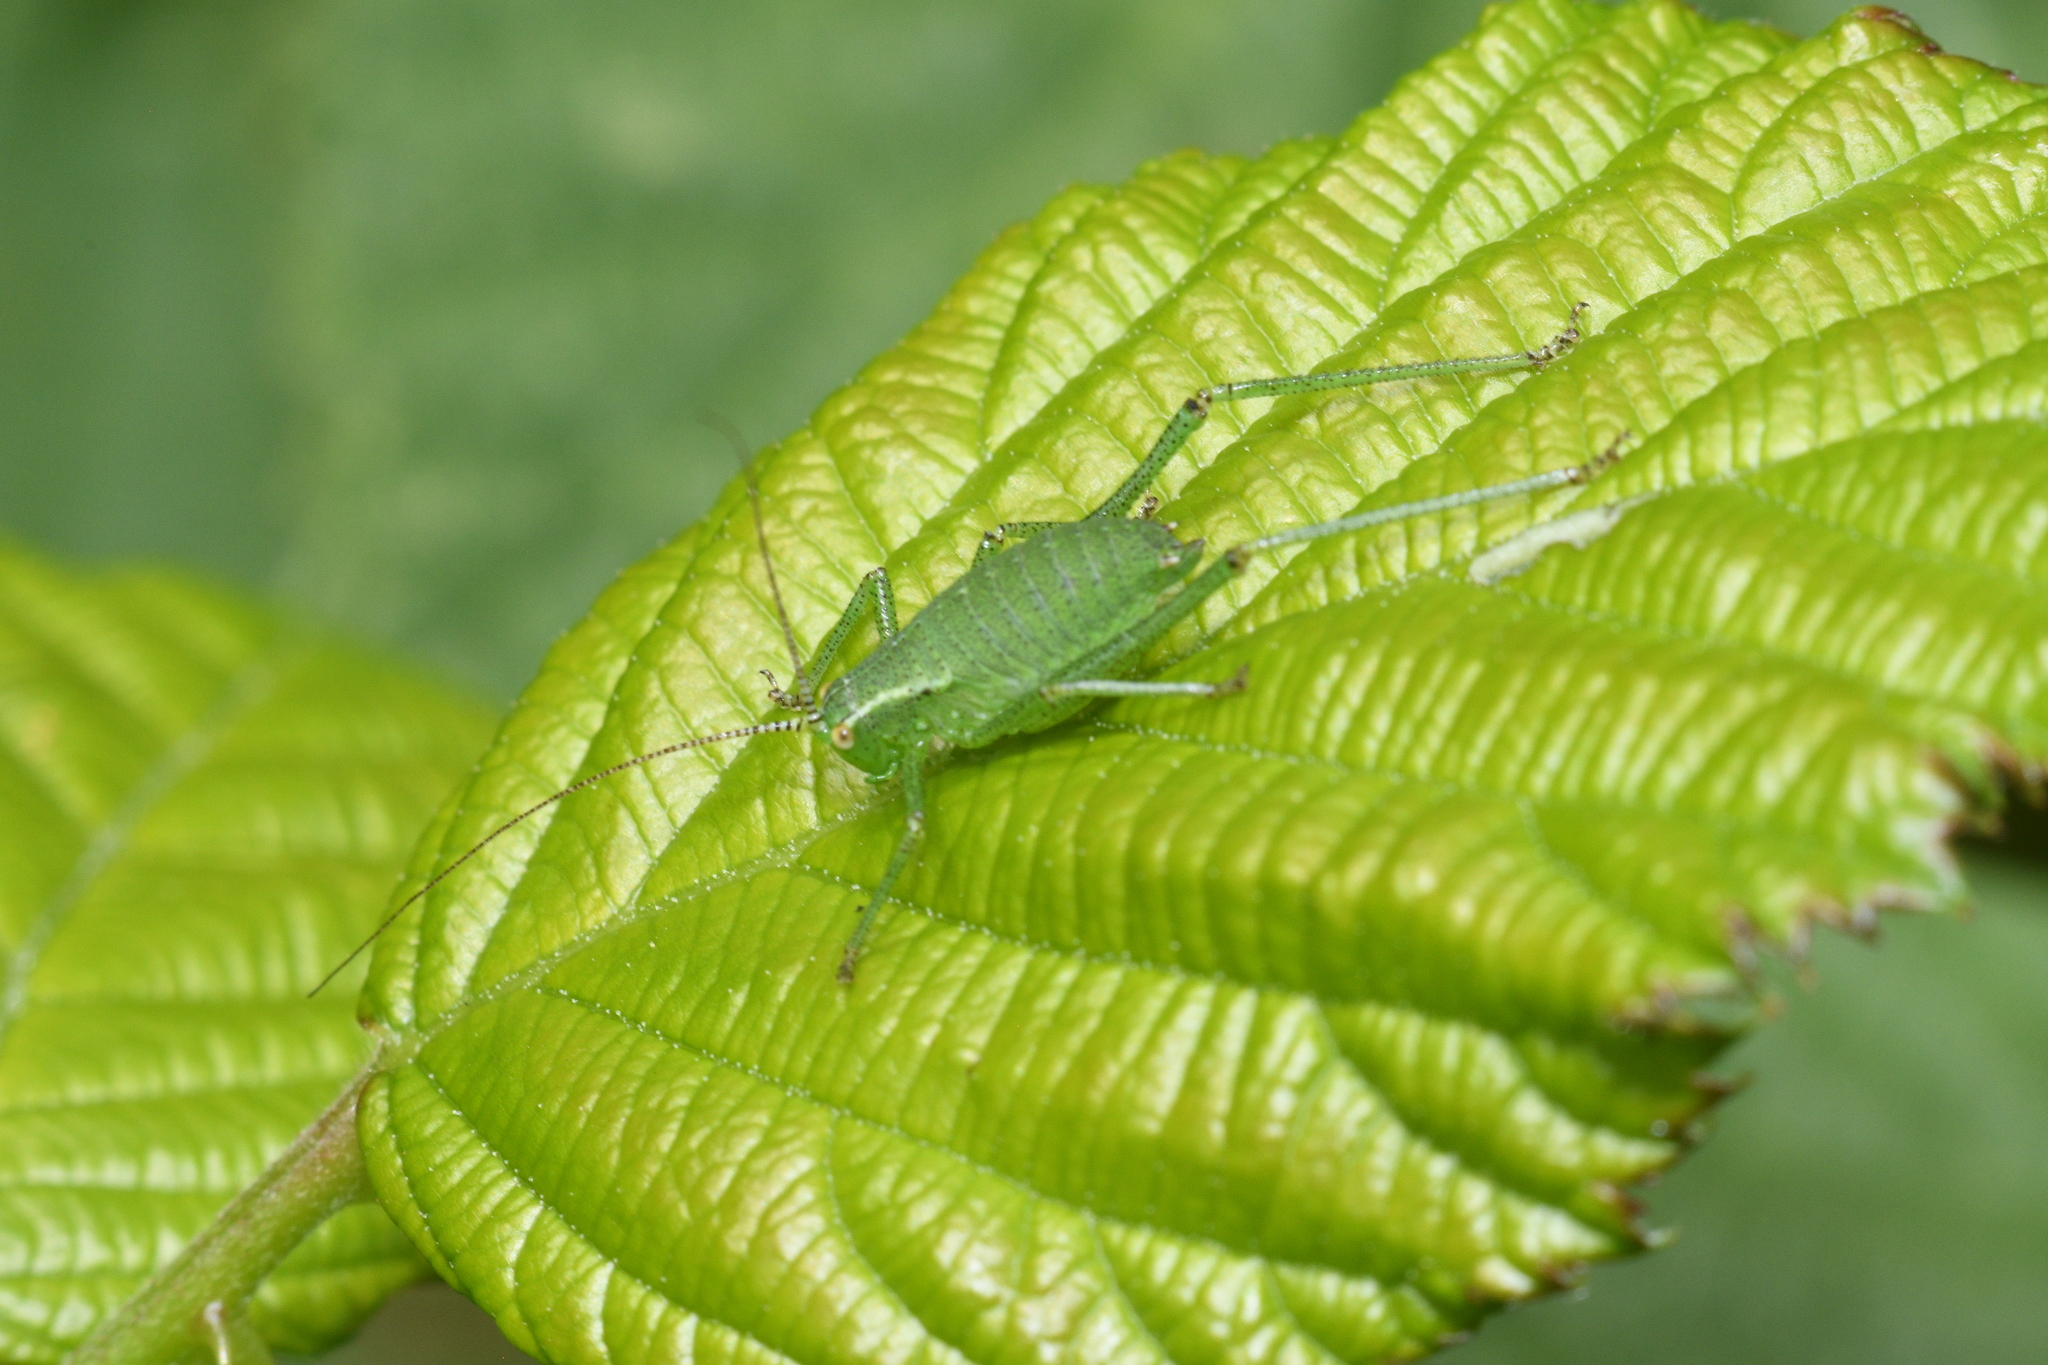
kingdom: Animalia
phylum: Arthropoda
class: Insecta
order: Orthoptera
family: Tettigoniidae
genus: Leptophyes
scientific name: Leptophyes punctatissima
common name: Speckled bush-cricket
